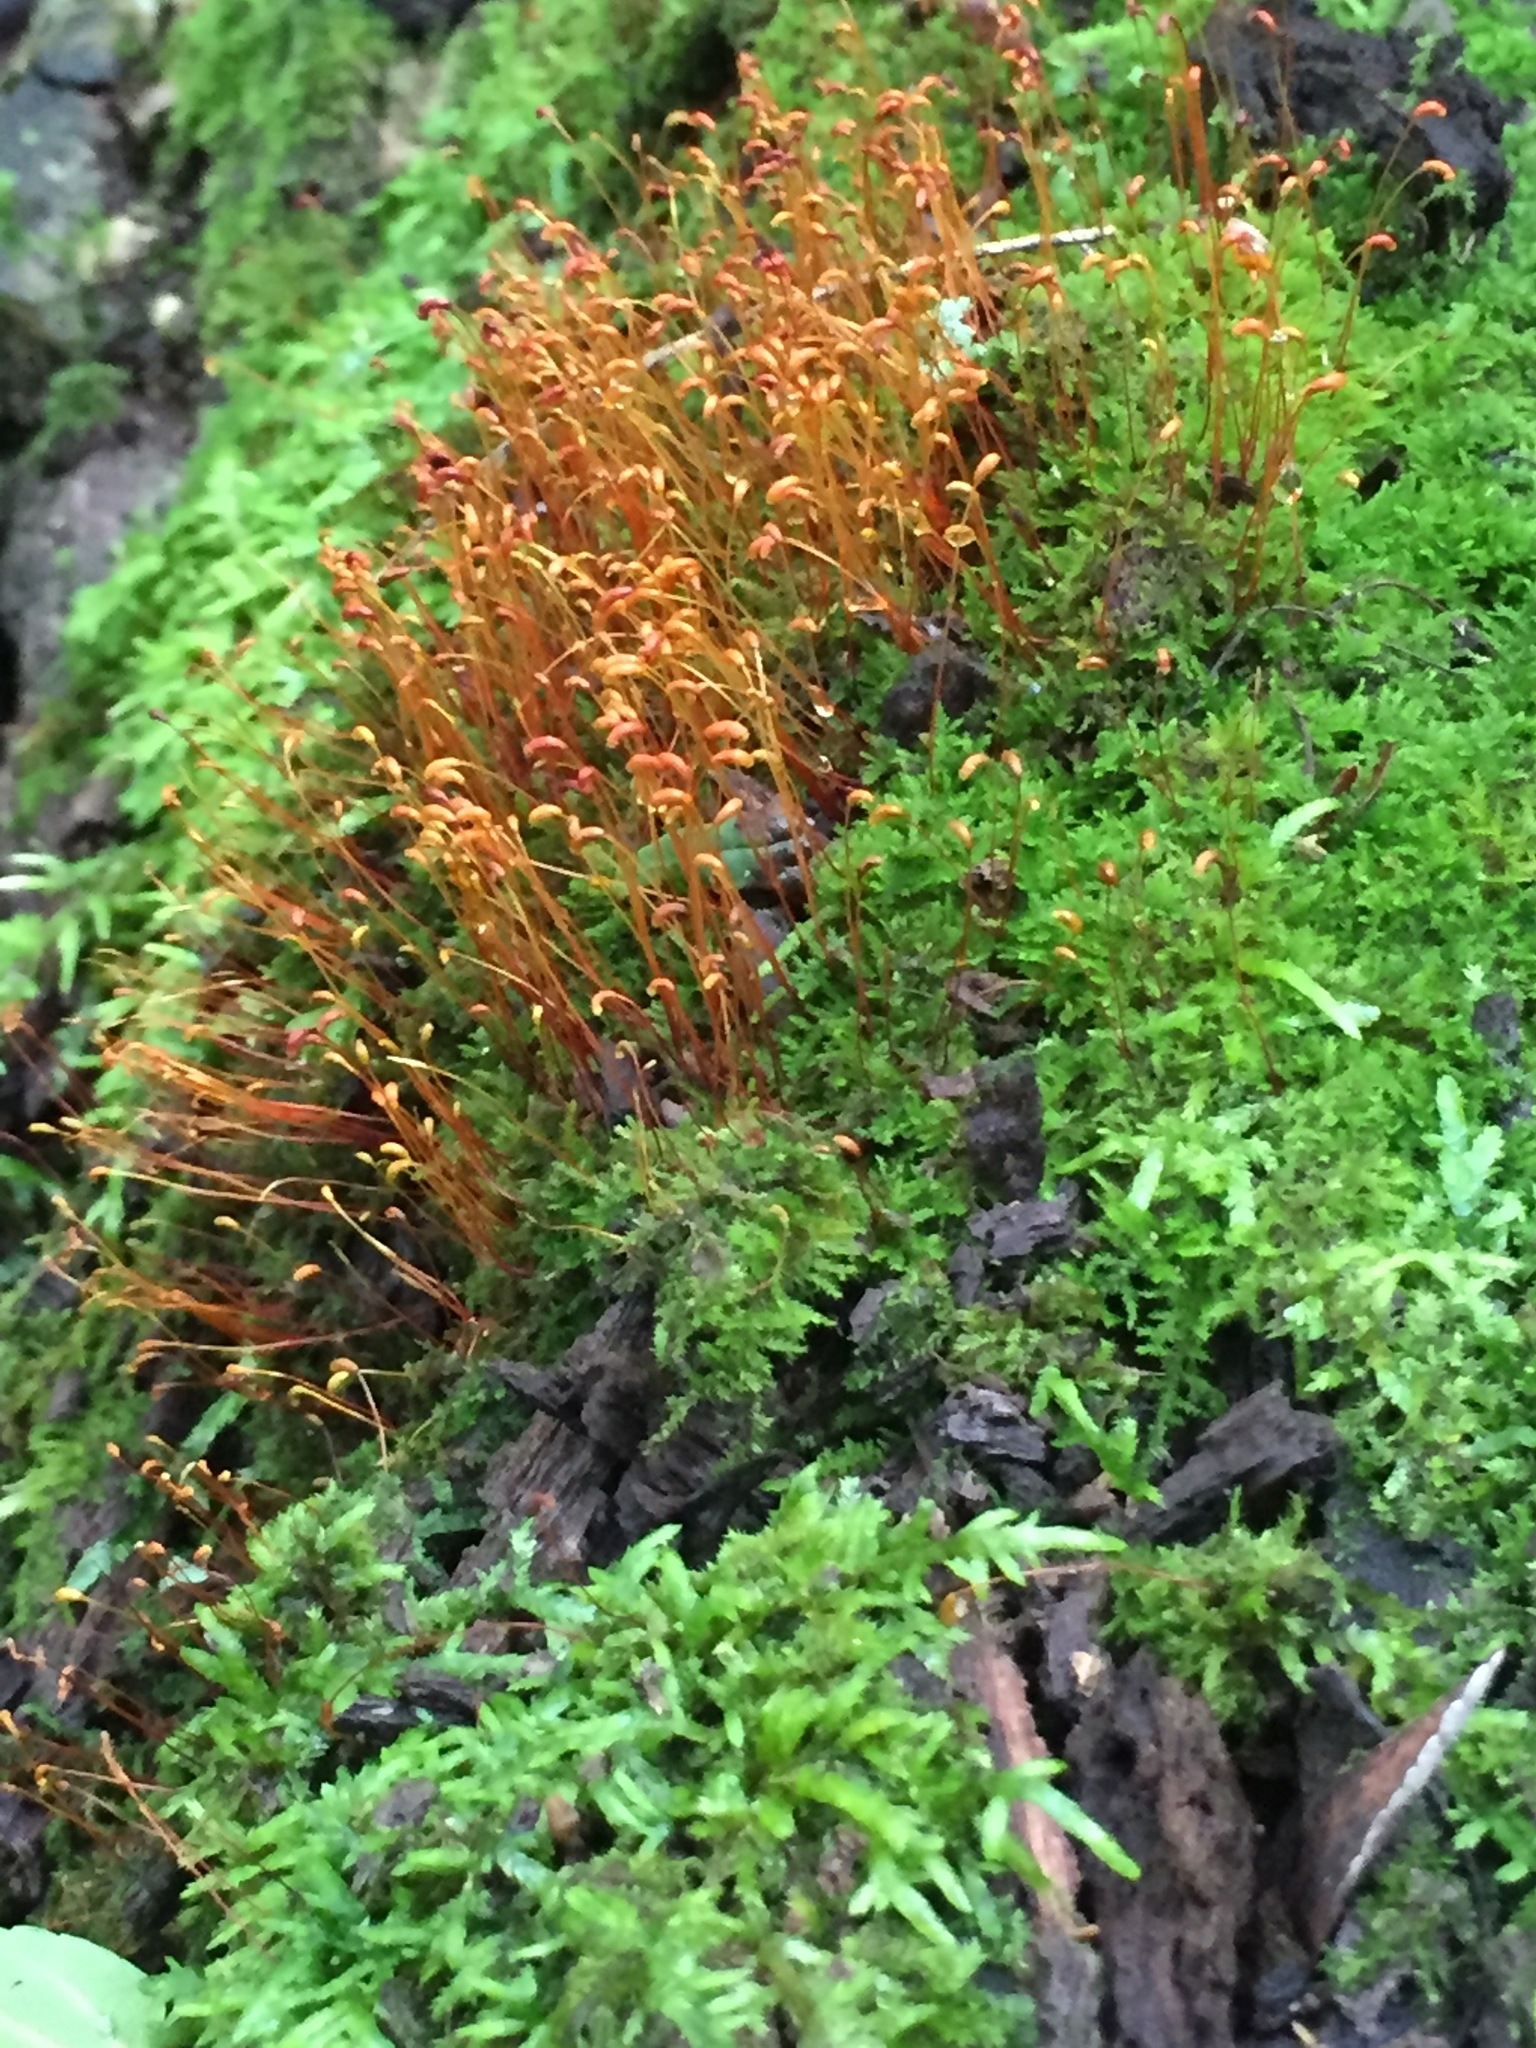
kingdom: Plantae
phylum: Bryophyta
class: Bryopsida
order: Dicranales
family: Ditrichaceae
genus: Ceratodon
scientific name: Ceratodon purpureus
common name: Redshank
